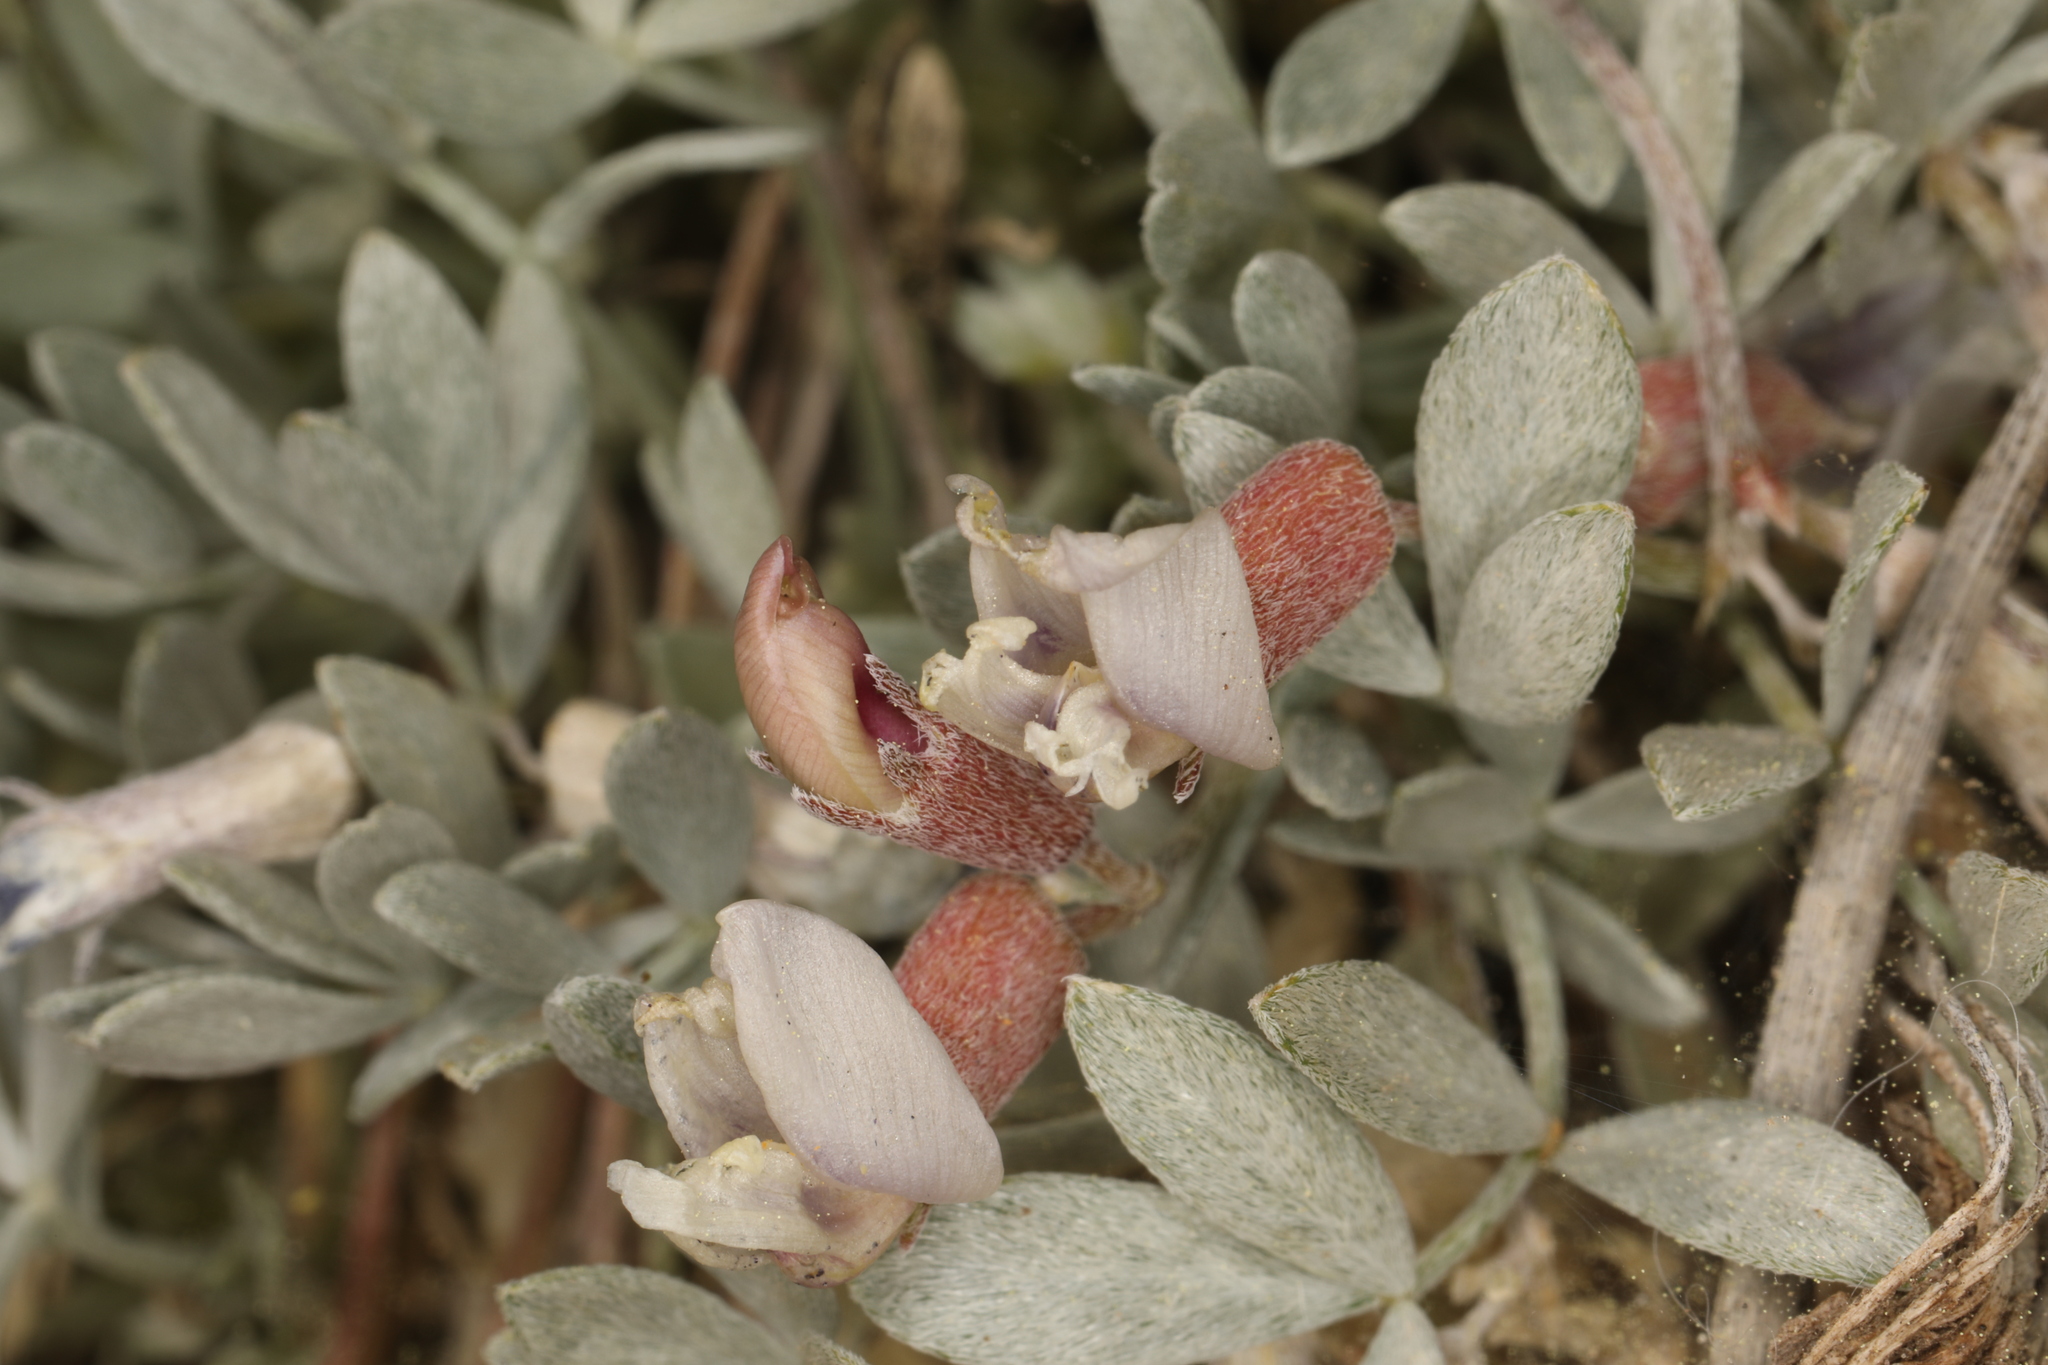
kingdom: Plantae
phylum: Tracheophyta
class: Magnoliopsida
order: Fabales
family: Fabaceae
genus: Astragalus
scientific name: Astragalus calycosus
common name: King's milkvetch
